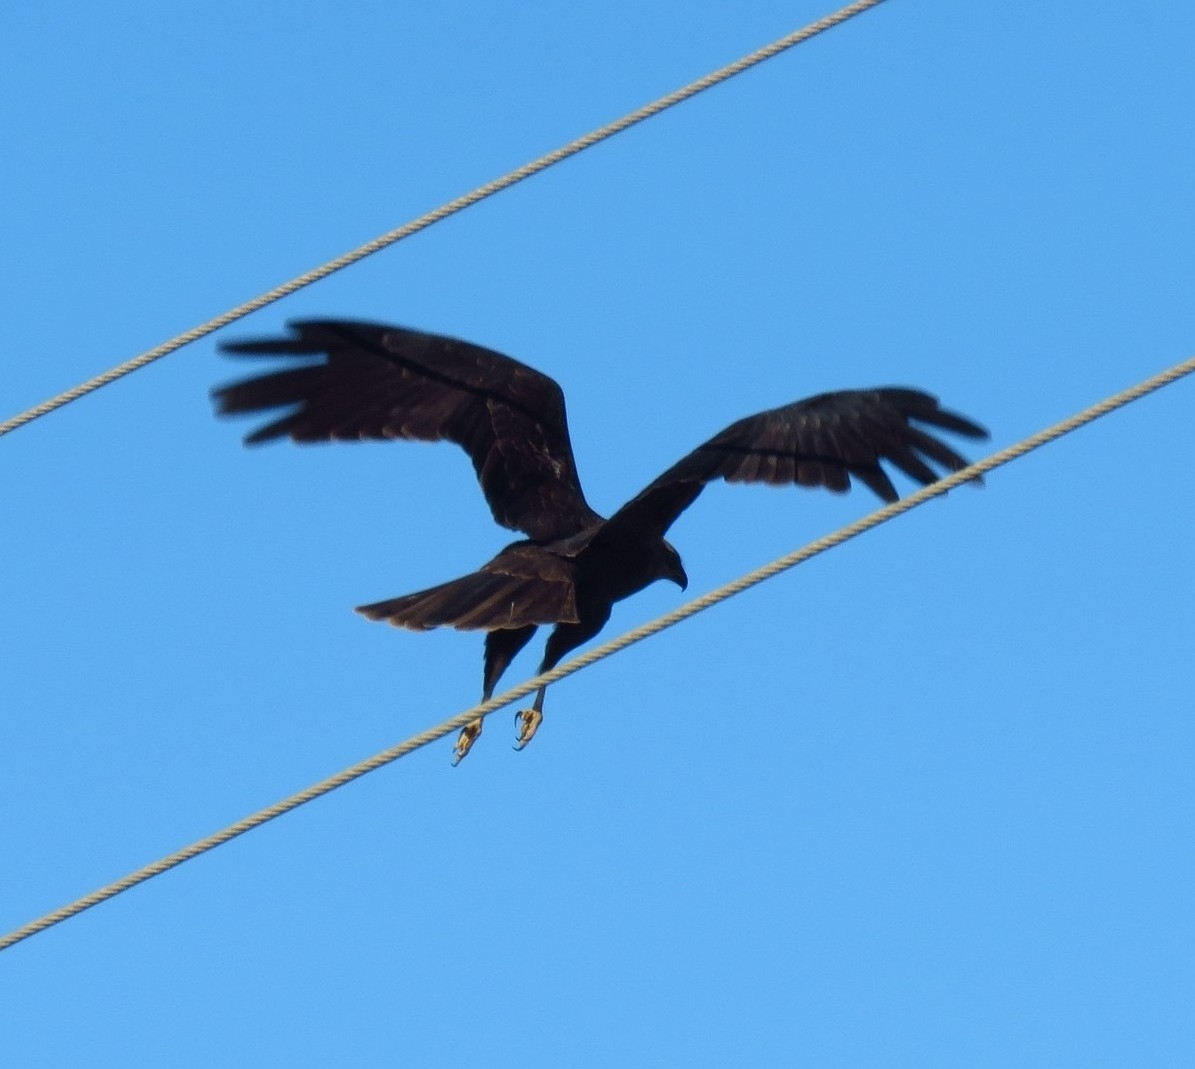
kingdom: Animalia
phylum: Chordata
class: Aves
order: Accipitriformes
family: Accipitridae
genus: Circus
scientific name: Circus aeruginosus
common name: Western marsh harrier
